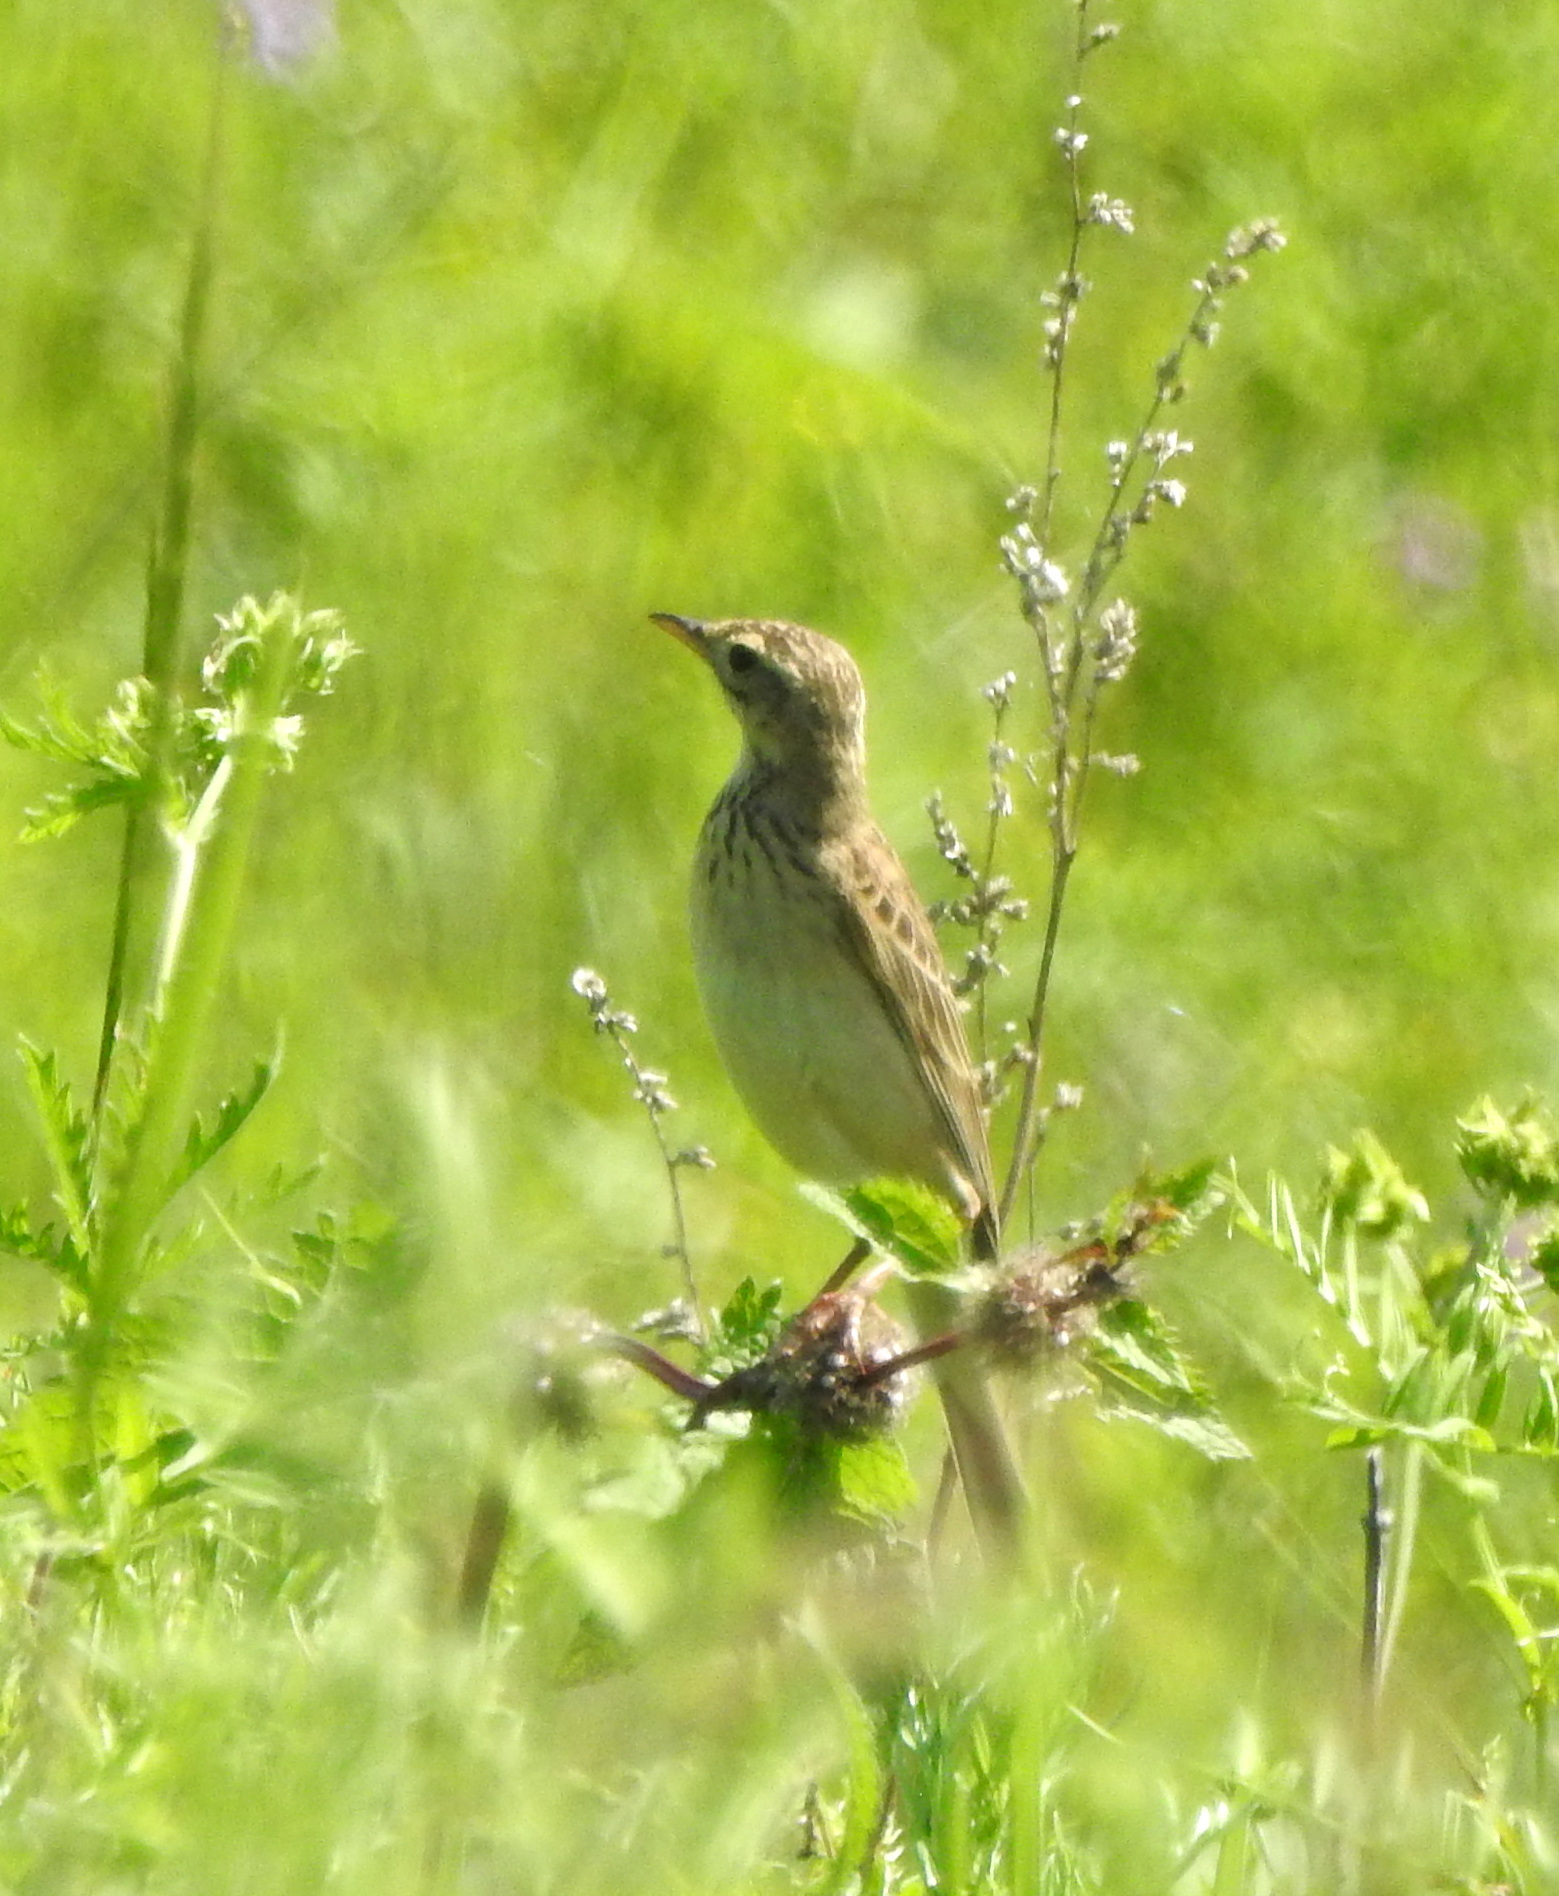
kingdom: Animalia
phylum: Chordata
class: Aves
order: Passeriformes
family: Motacillidae
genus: Anthus
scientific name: Anthus richardi
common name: Richard's pipit
